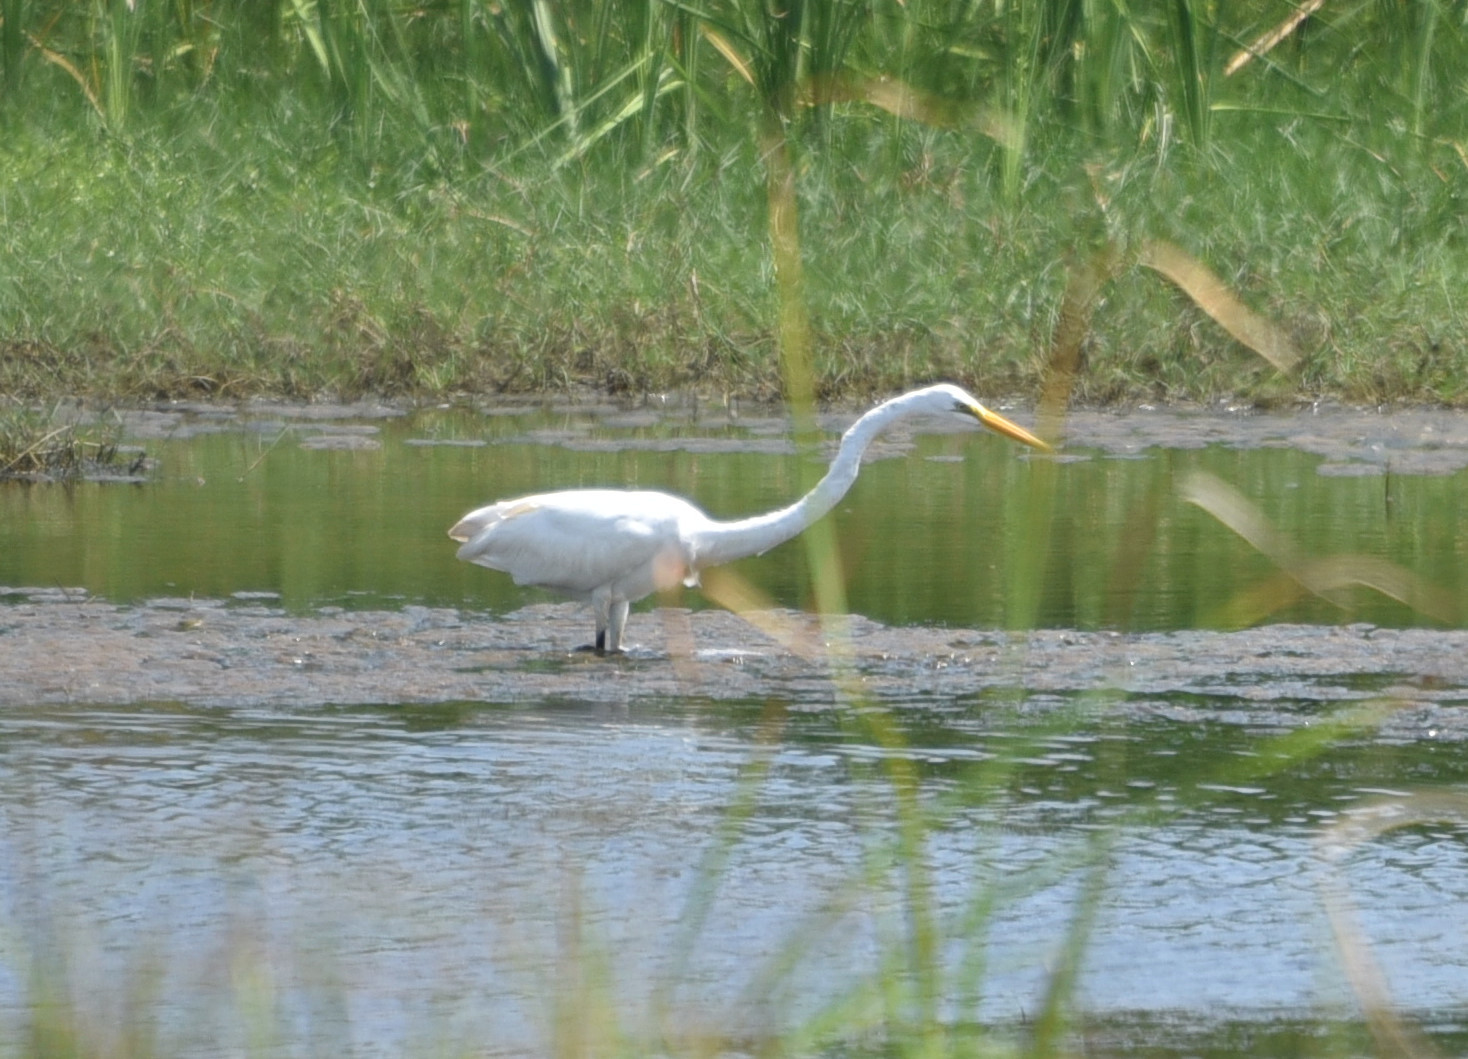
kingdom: Animalia
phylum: Chordata
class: Aves
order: Pelecaniformes
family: Ardeidae
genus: Ardea
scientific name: Ardea alba
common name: Great egret
